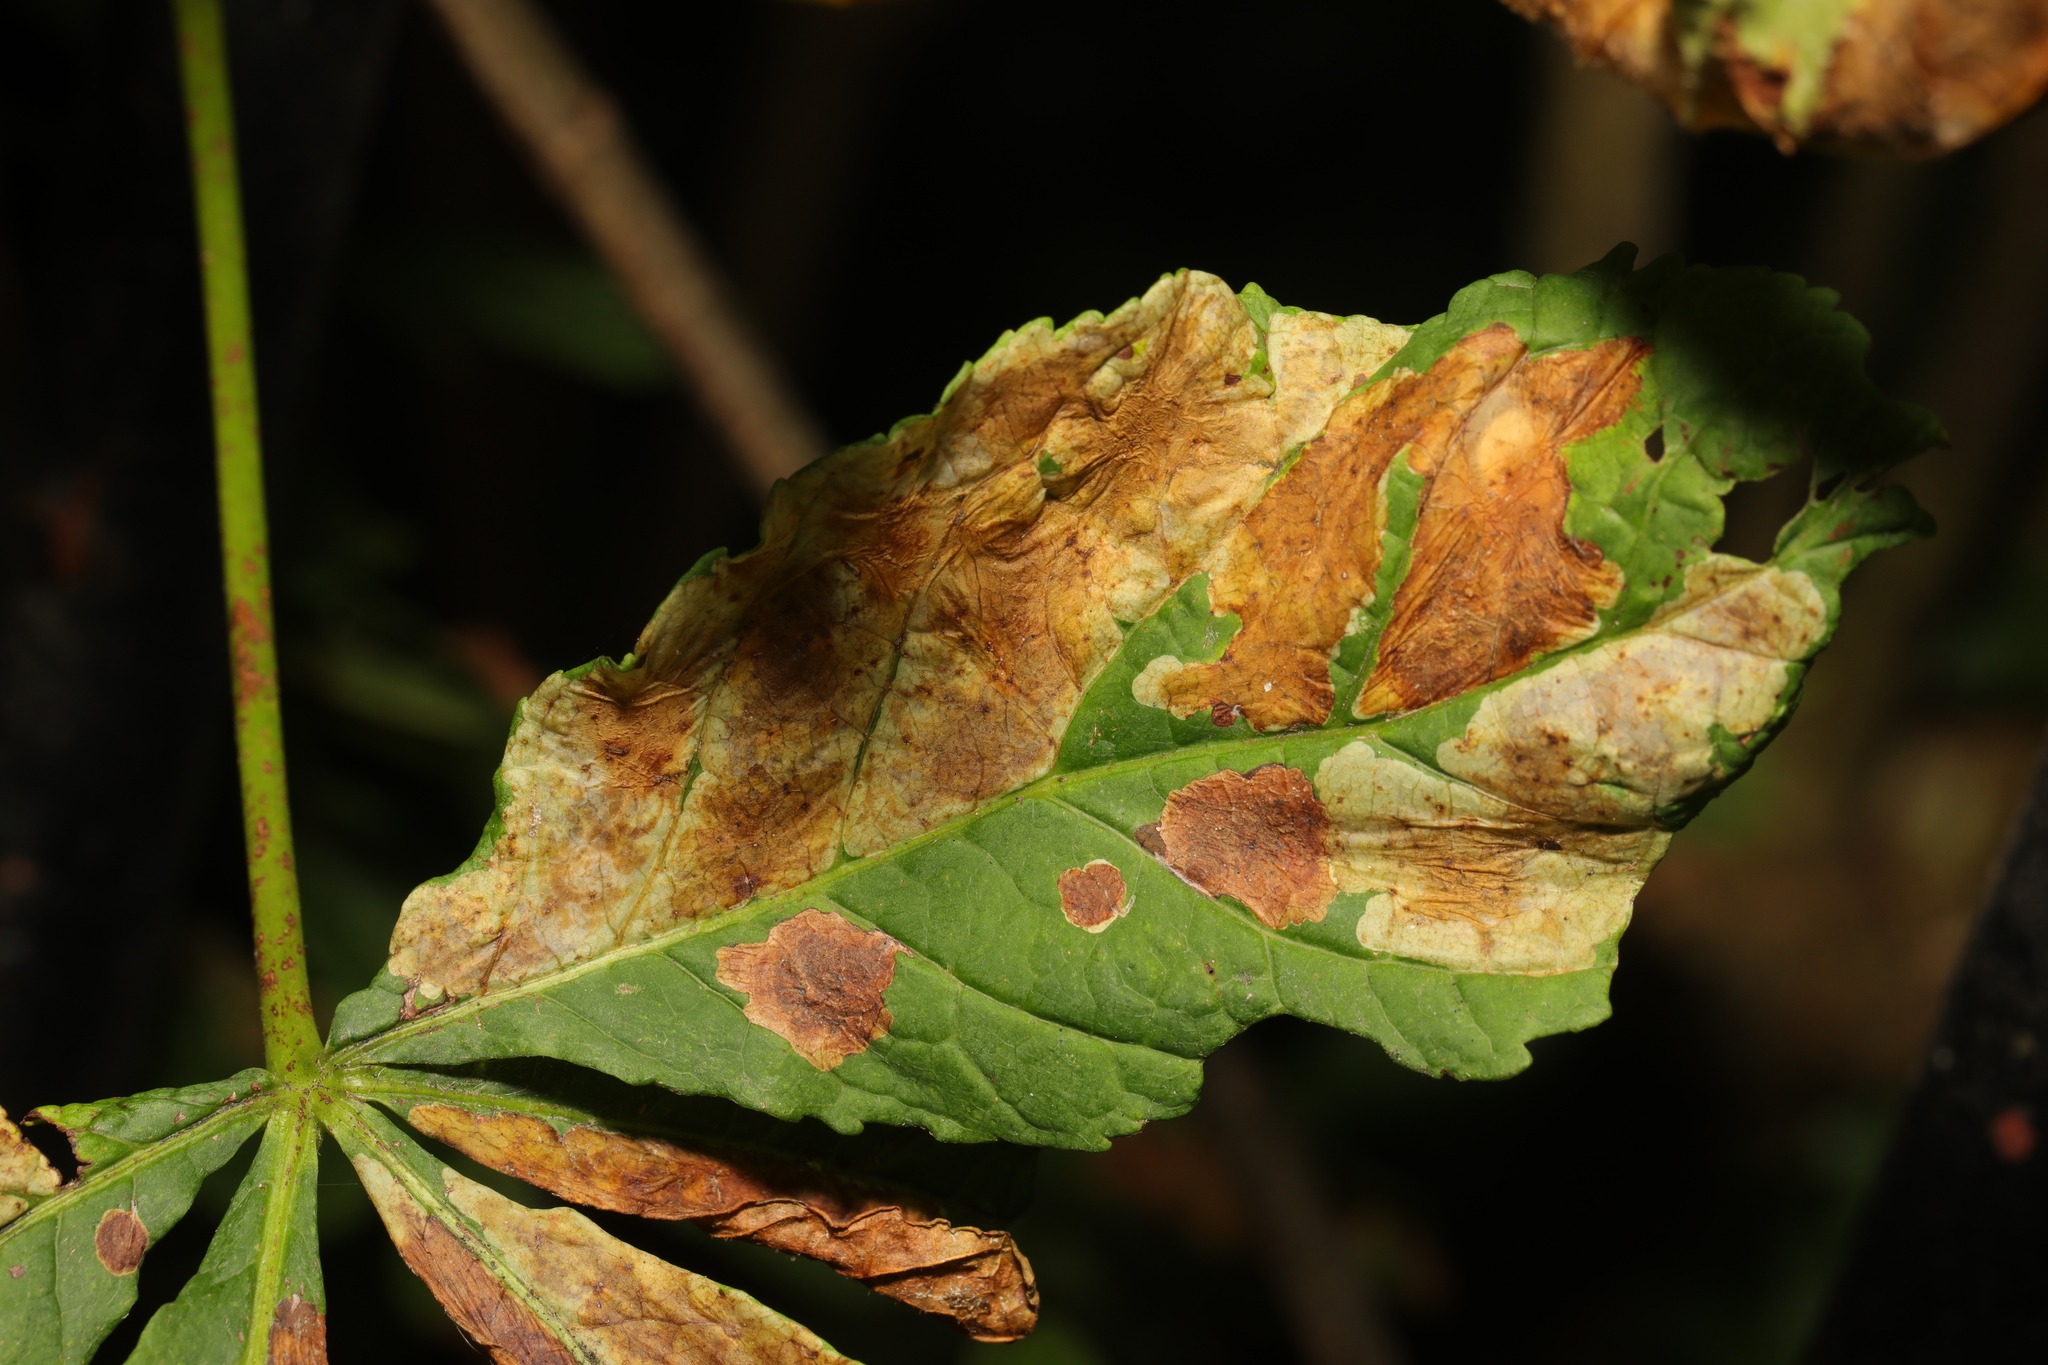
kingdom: Animalia
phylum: Arthropoda
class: Insecta
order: Lepidoptera
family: Gracillariidae
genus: Cameraria
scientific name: Cameraria ohridella
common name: Horse-chestnut leaf-miner
